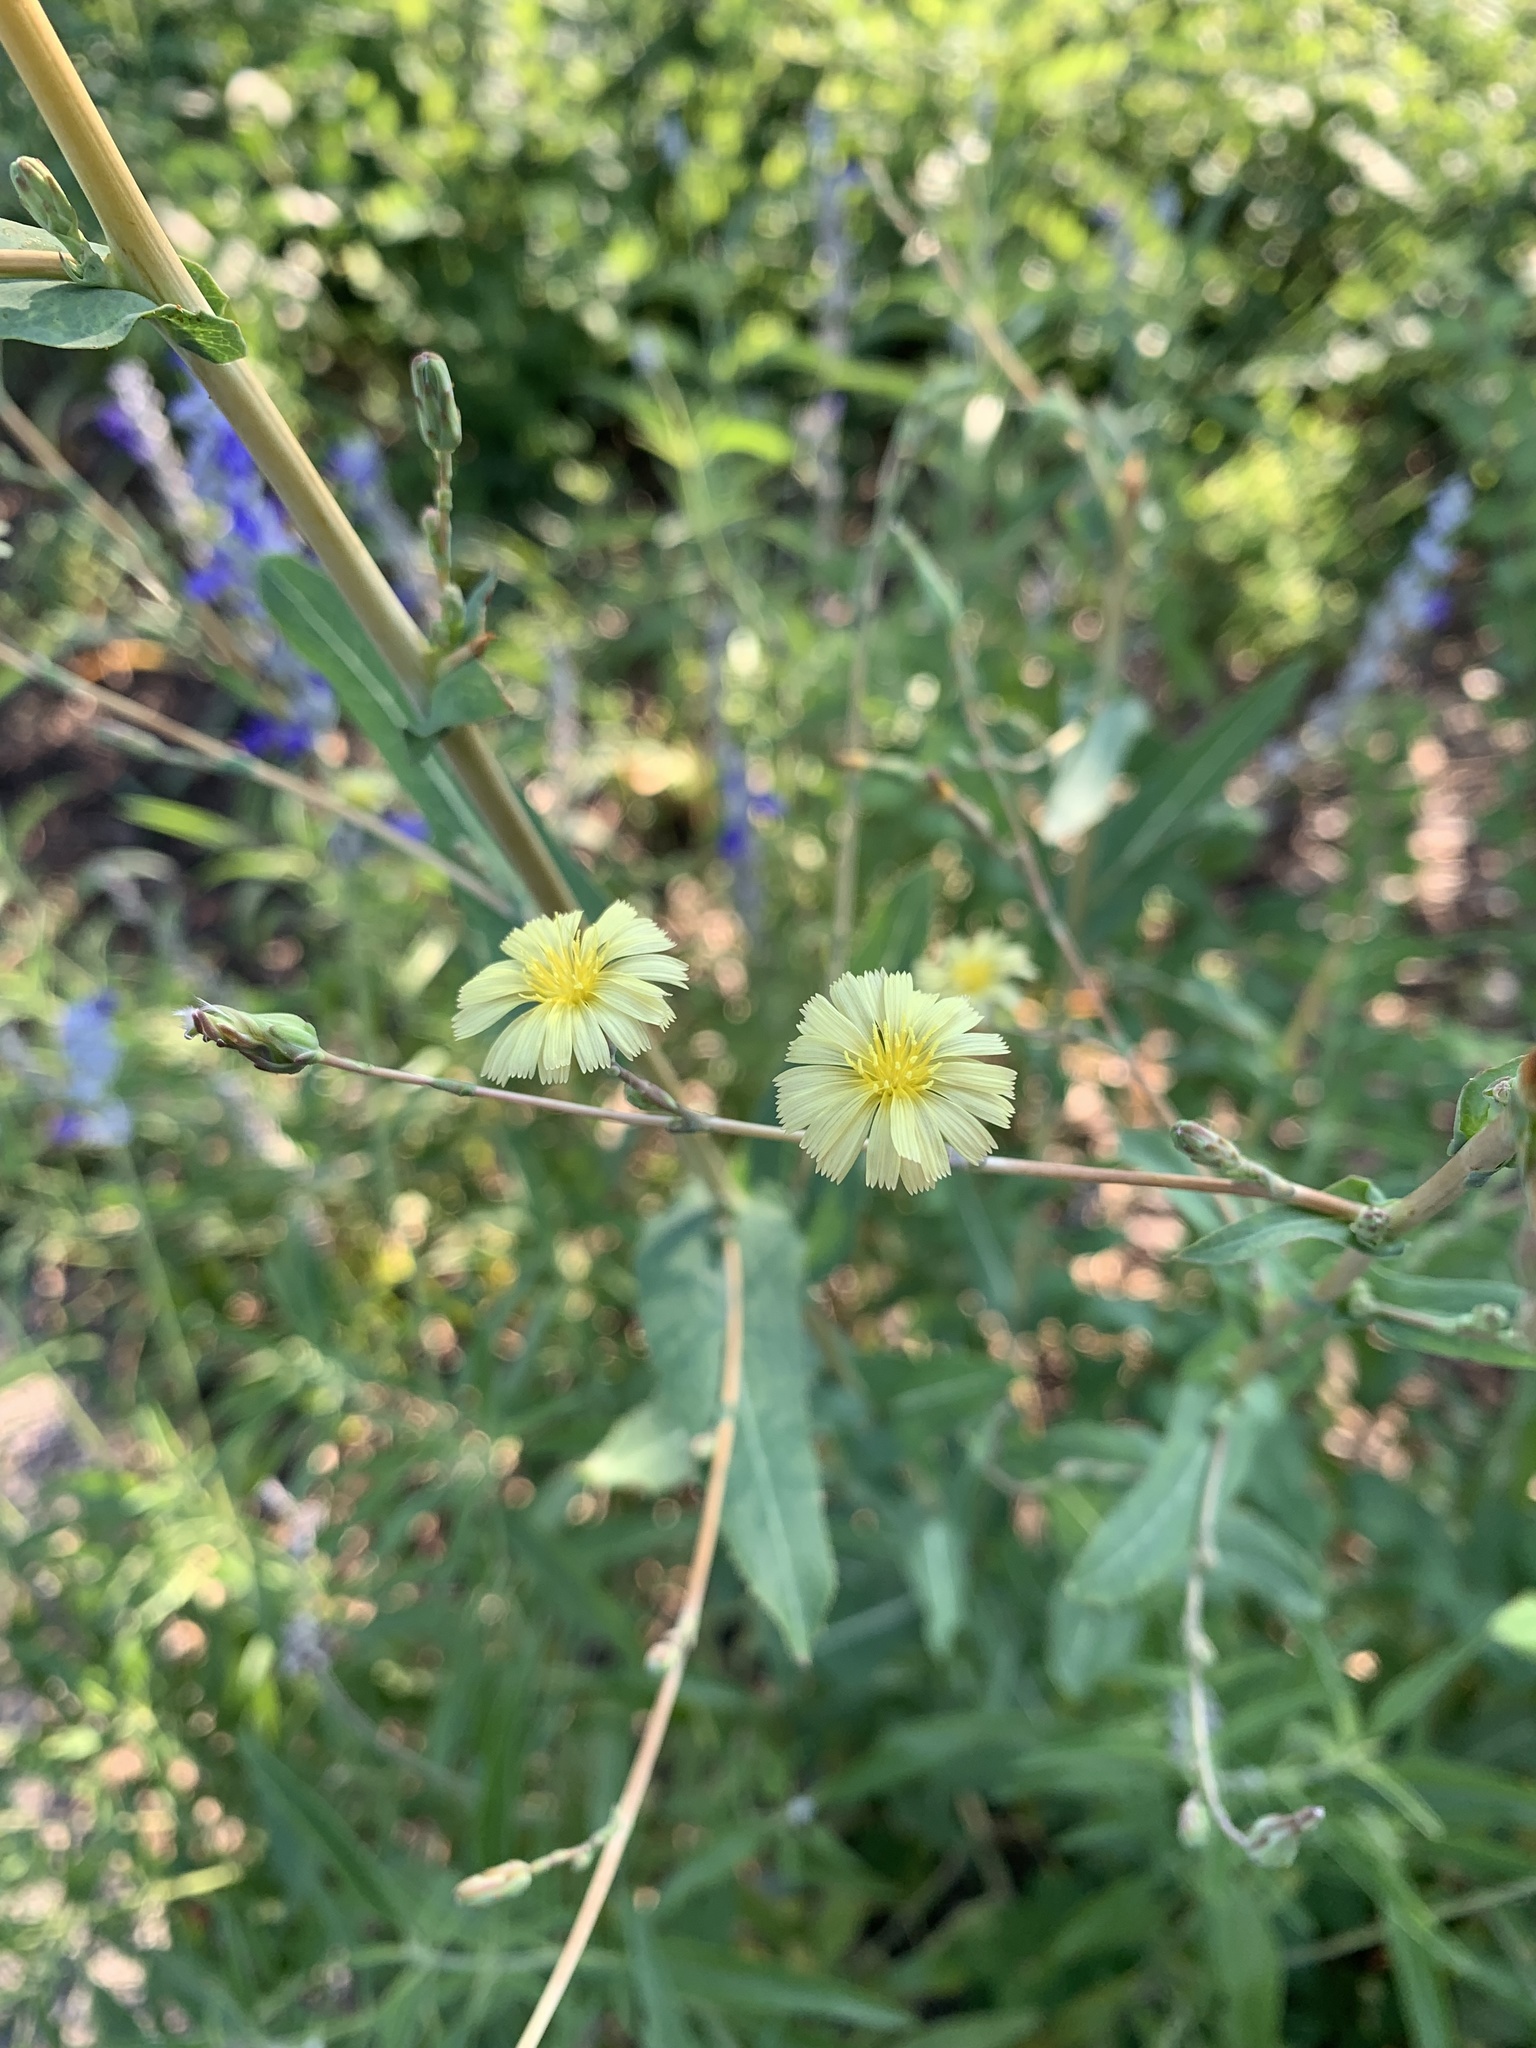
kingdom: Plantae
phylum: Tracheophyta
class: Magnoliopsida
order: Asterales
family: Asteraceae
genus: Lactuca
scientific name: Lactuca serriola
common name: Prickly lettuce
